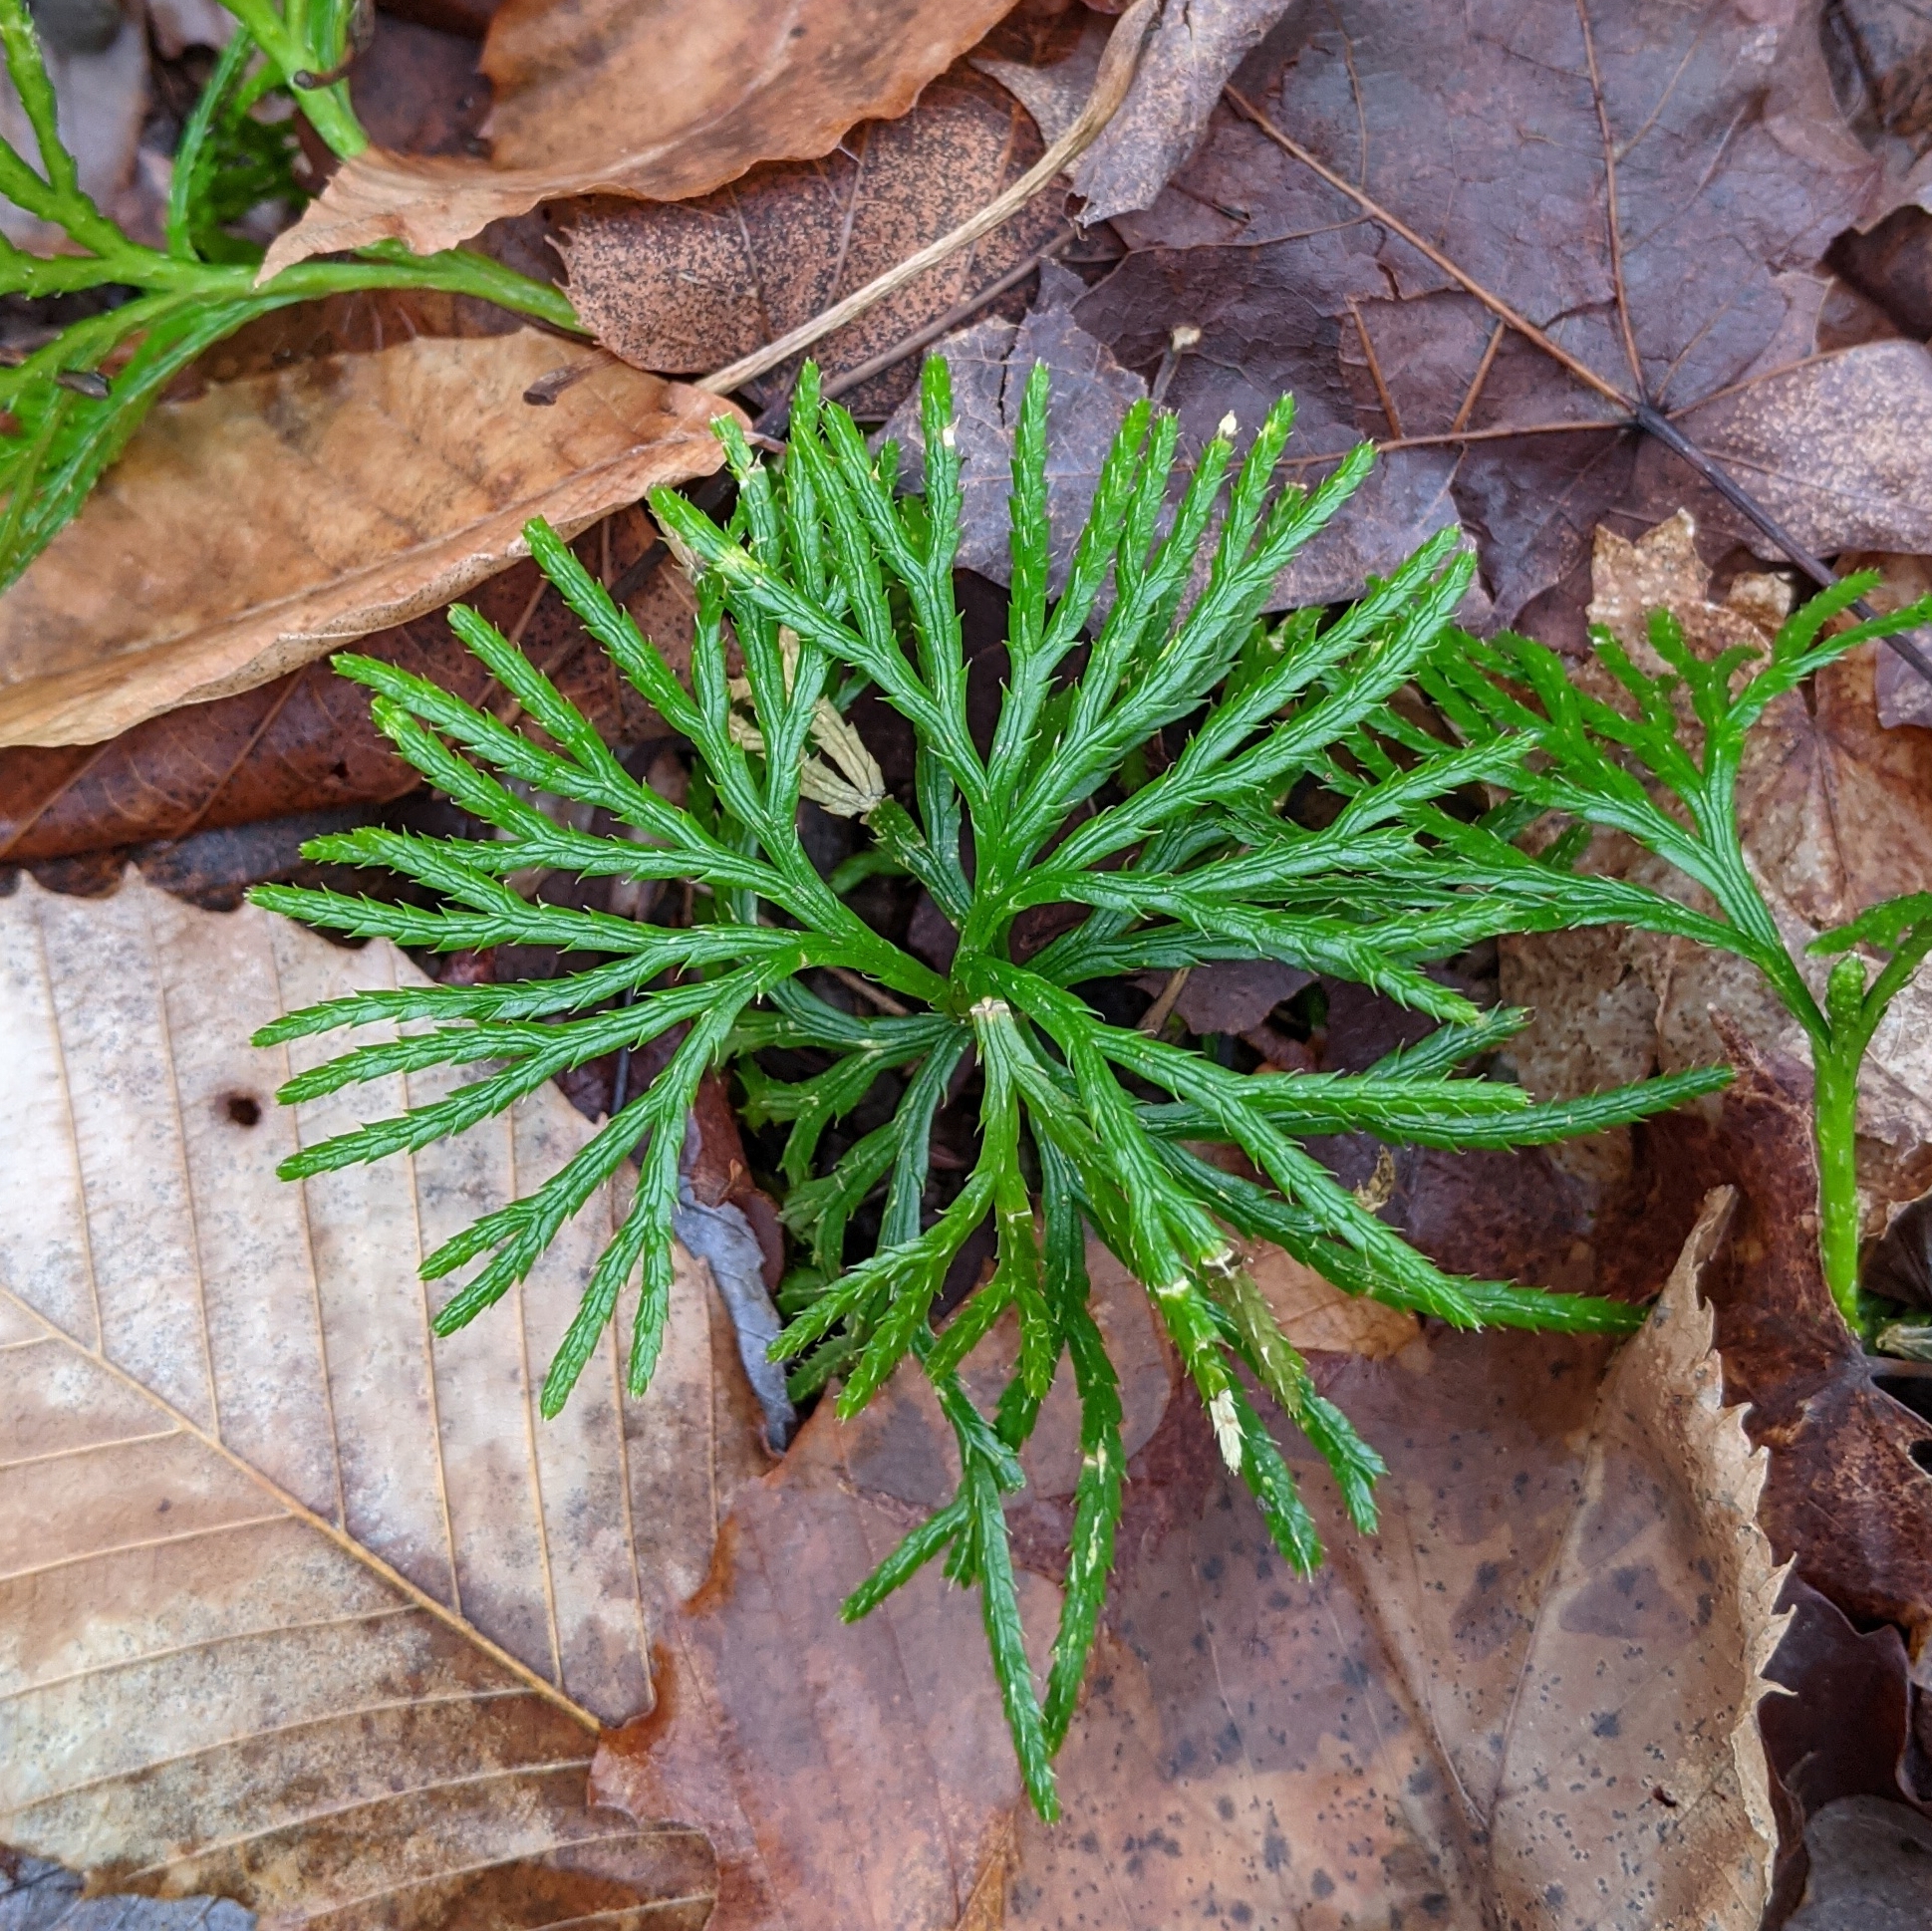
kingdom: Plantae
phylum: Tracheophyta
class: Lycopodiopsida
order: Lycopodiales
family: Lycopodiaceae
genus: Diphasiastrum
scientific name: Diphasiastrum digitatum
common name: Southern running-pine
